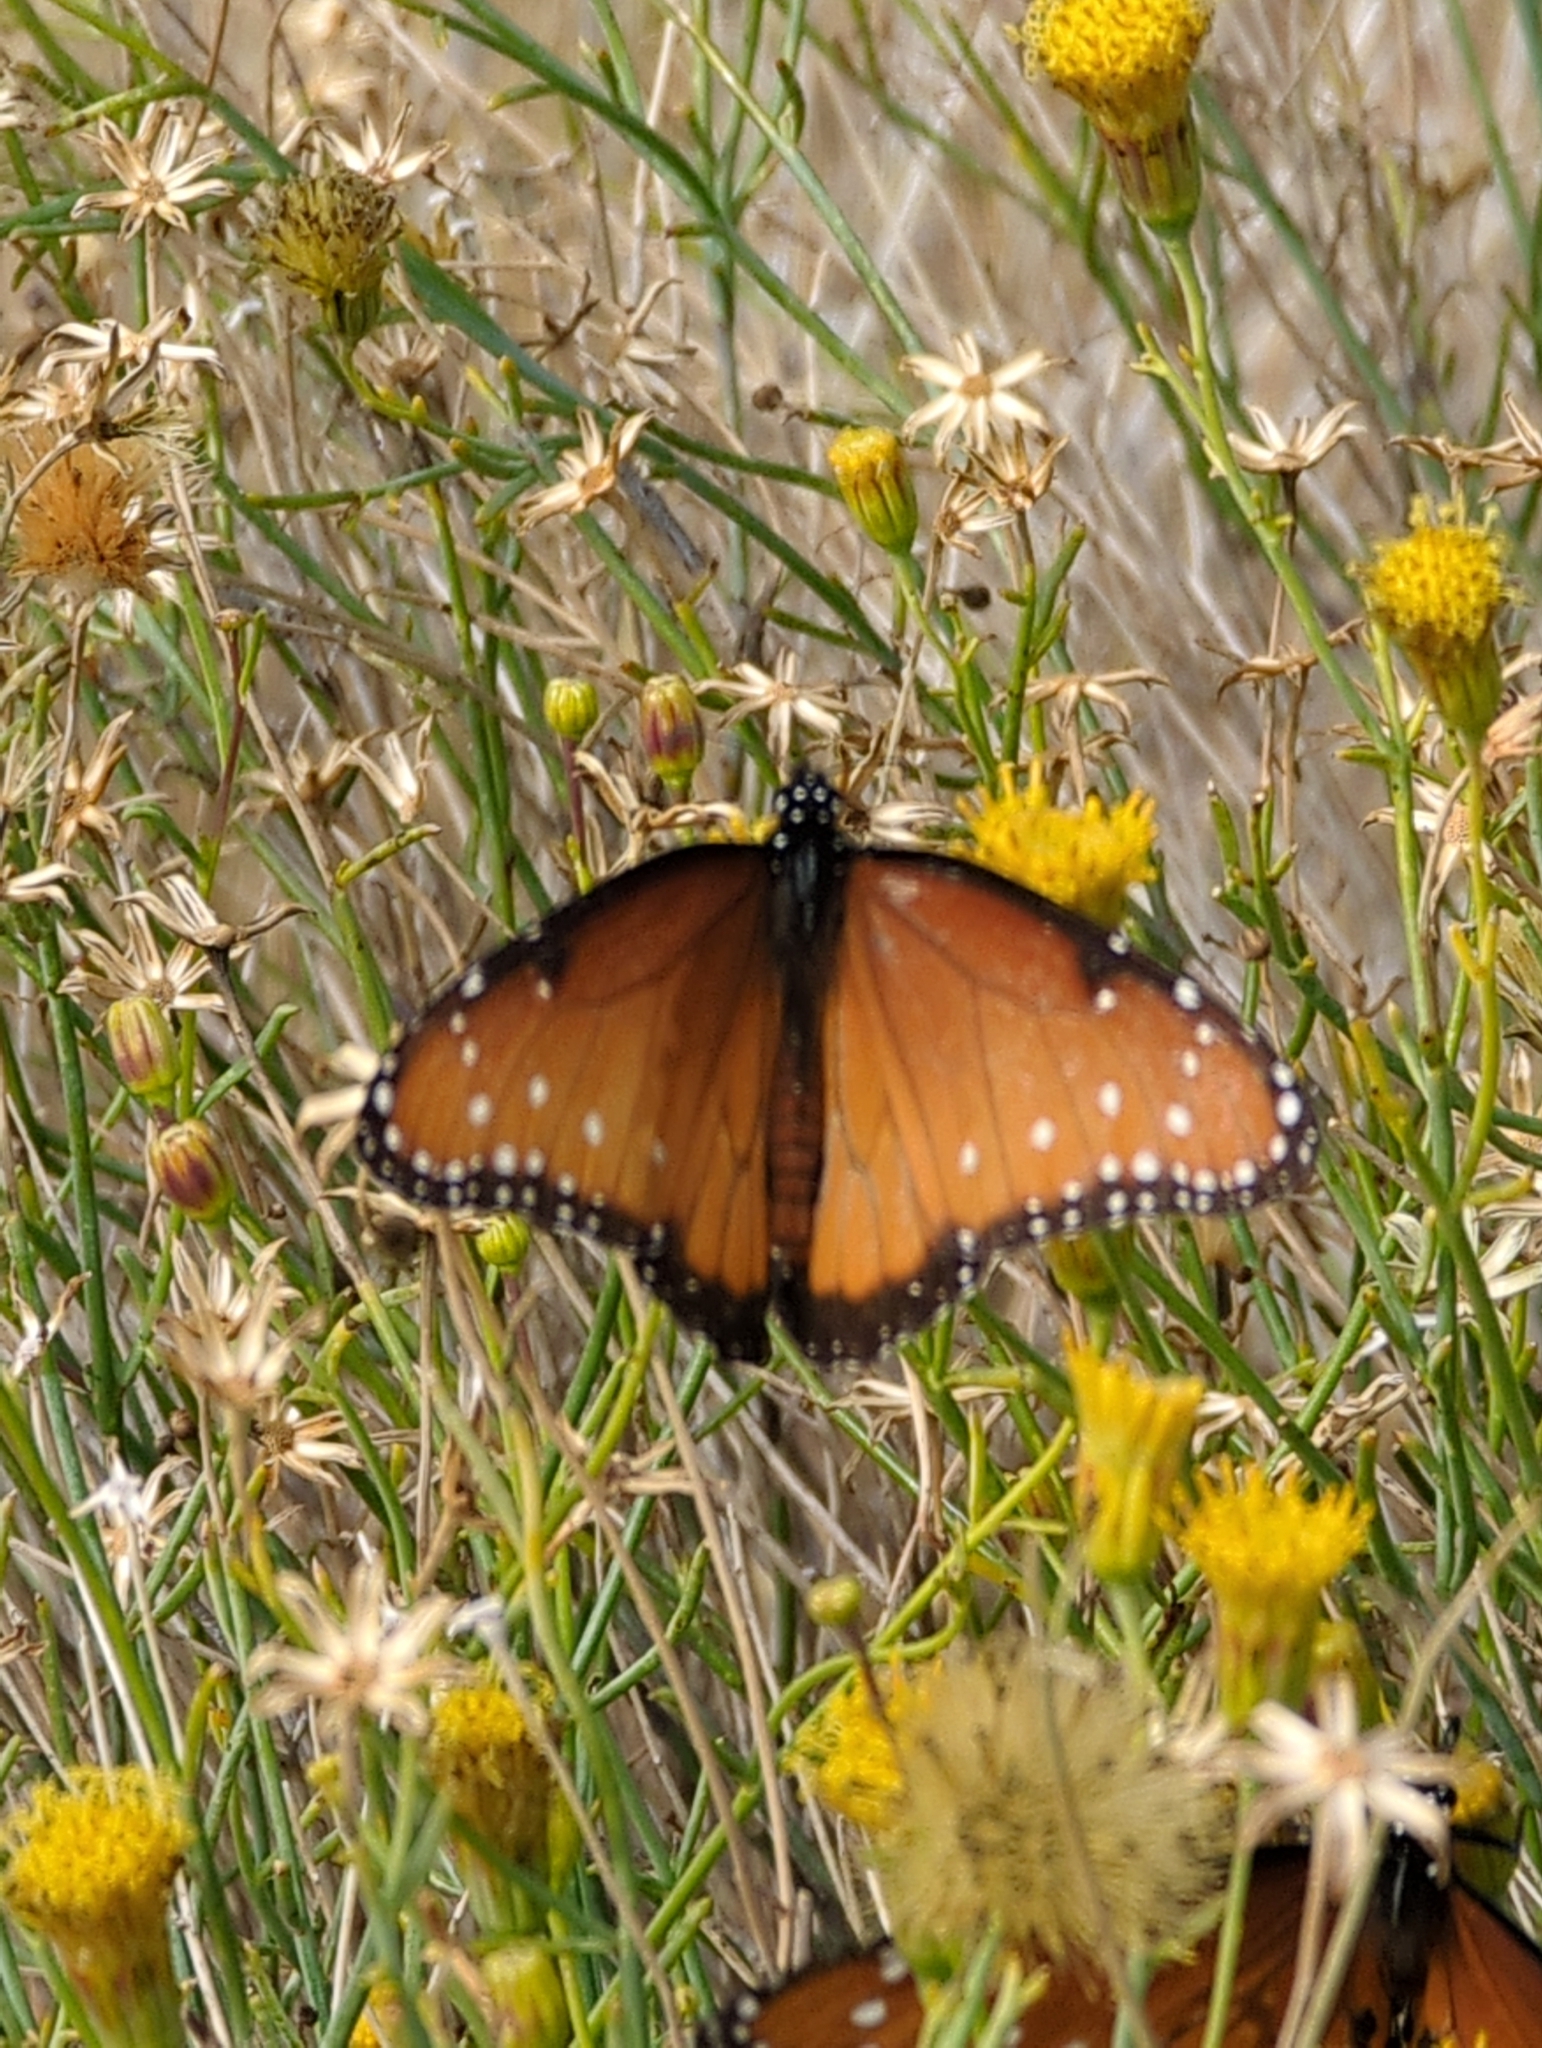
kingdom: Animalia
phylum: Arthropoda
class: Insecta
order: Lepidoptera
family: Nymphalidae
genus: Danaus
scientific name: Danaus gilippus
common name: Queen
